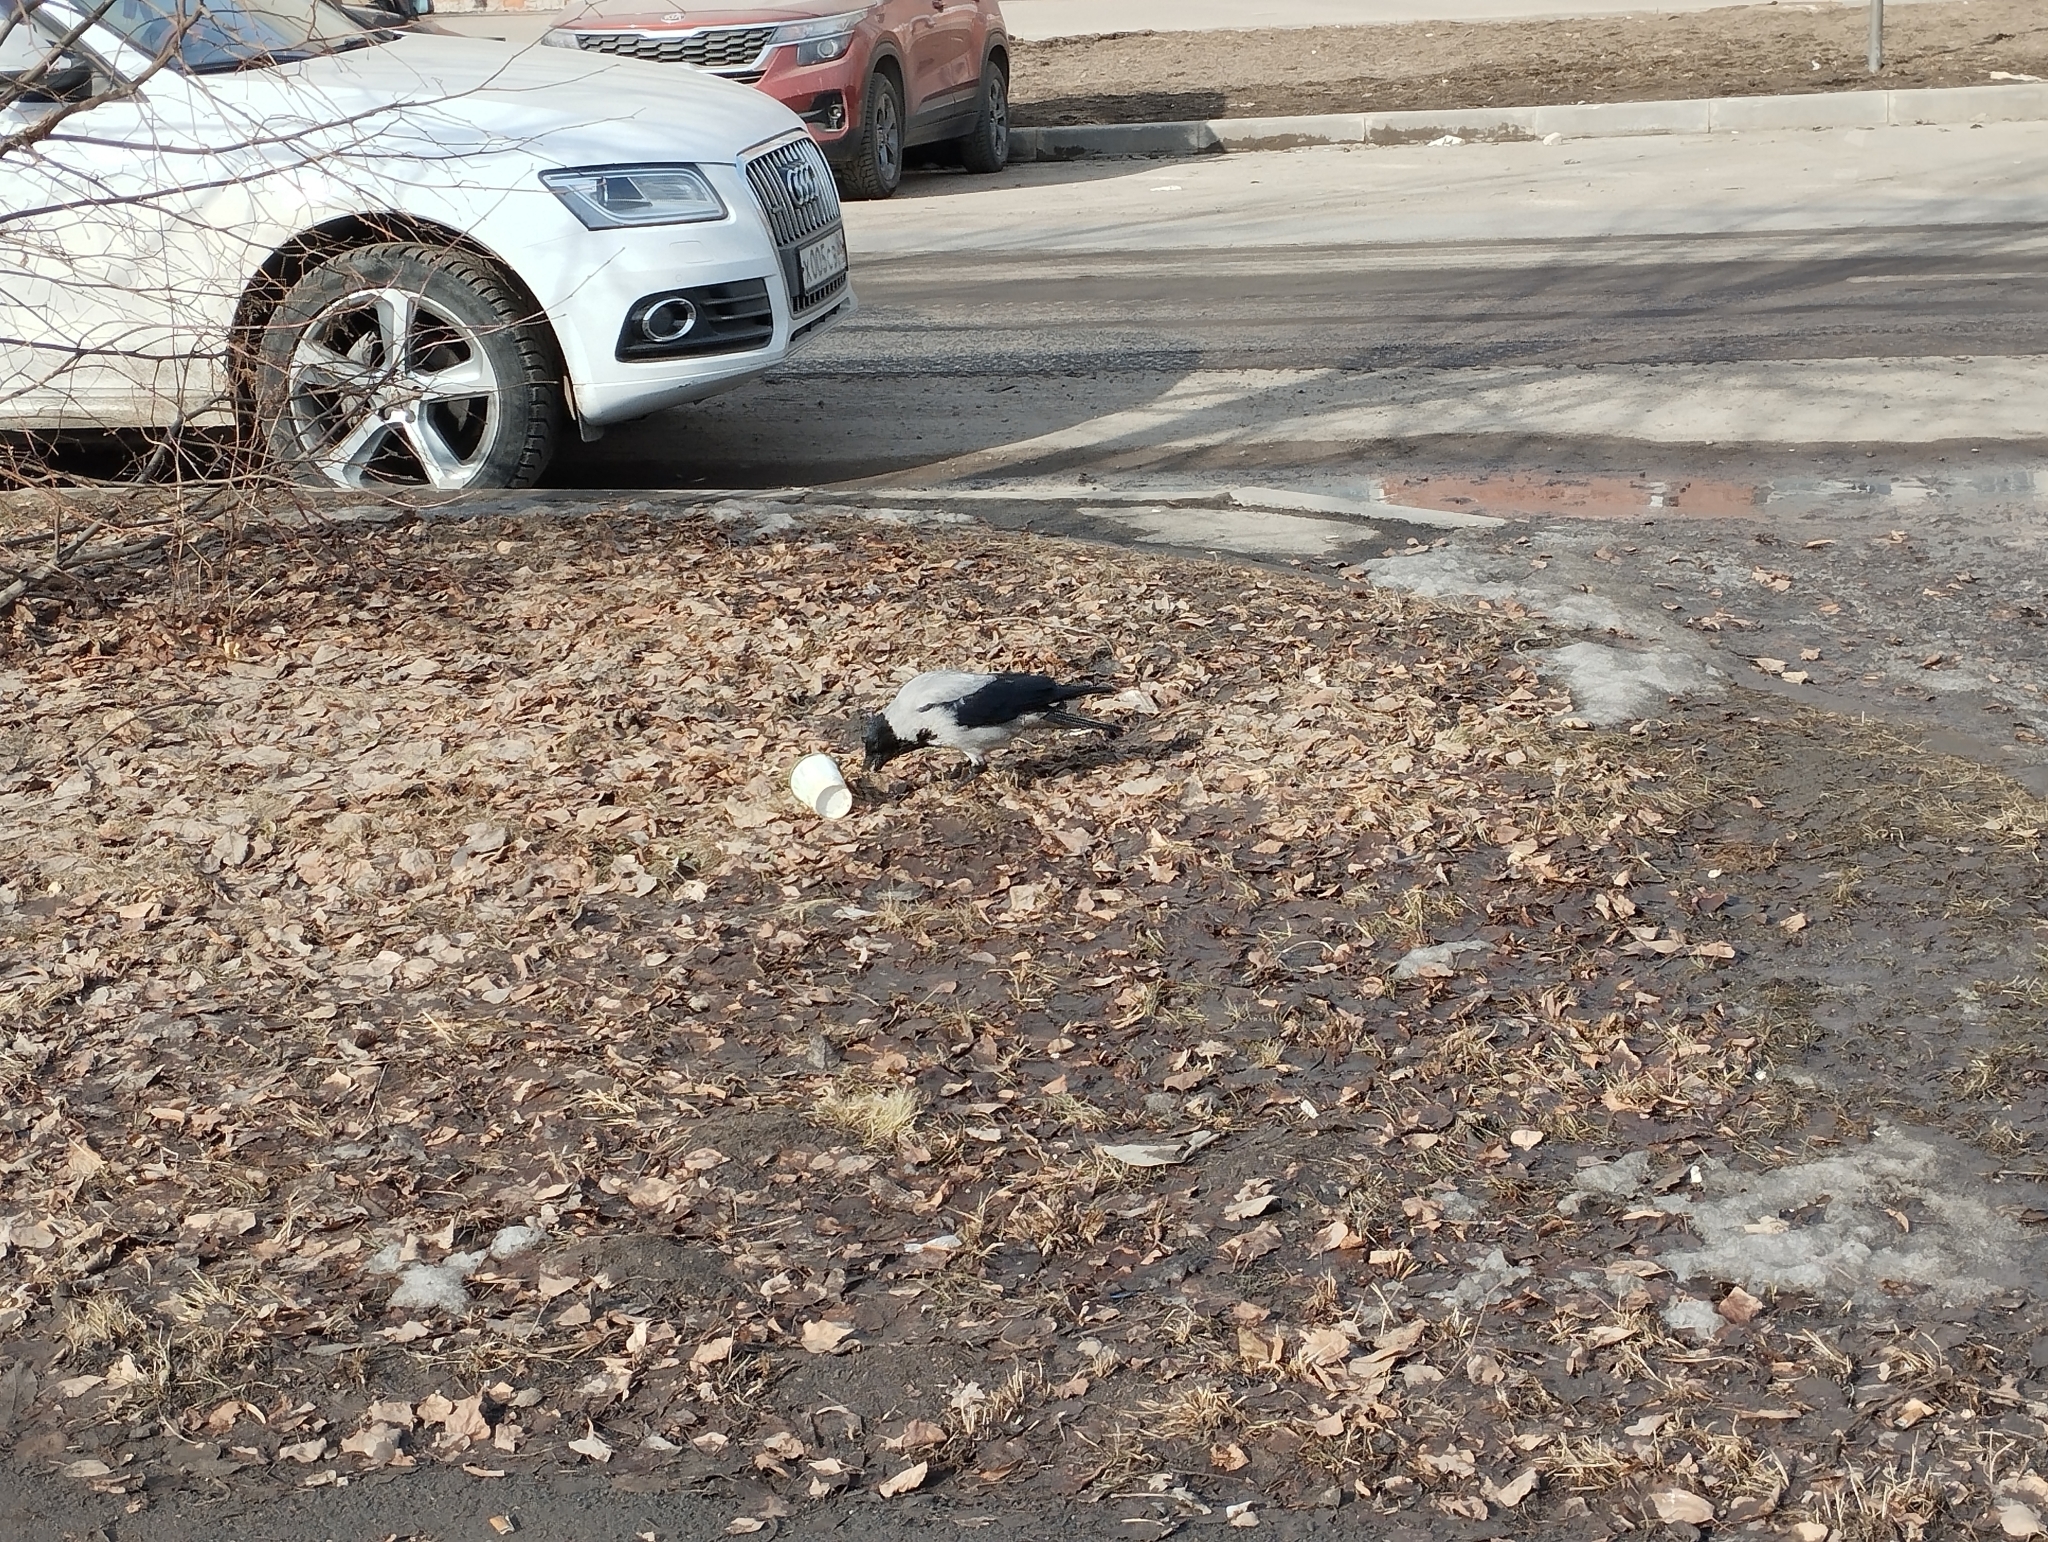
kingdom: Animalia
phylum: Chordata
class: Aves
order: Passeriformes
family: Corvidae
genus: Corvus
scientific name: Corvus cornix
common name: Hooded crow
